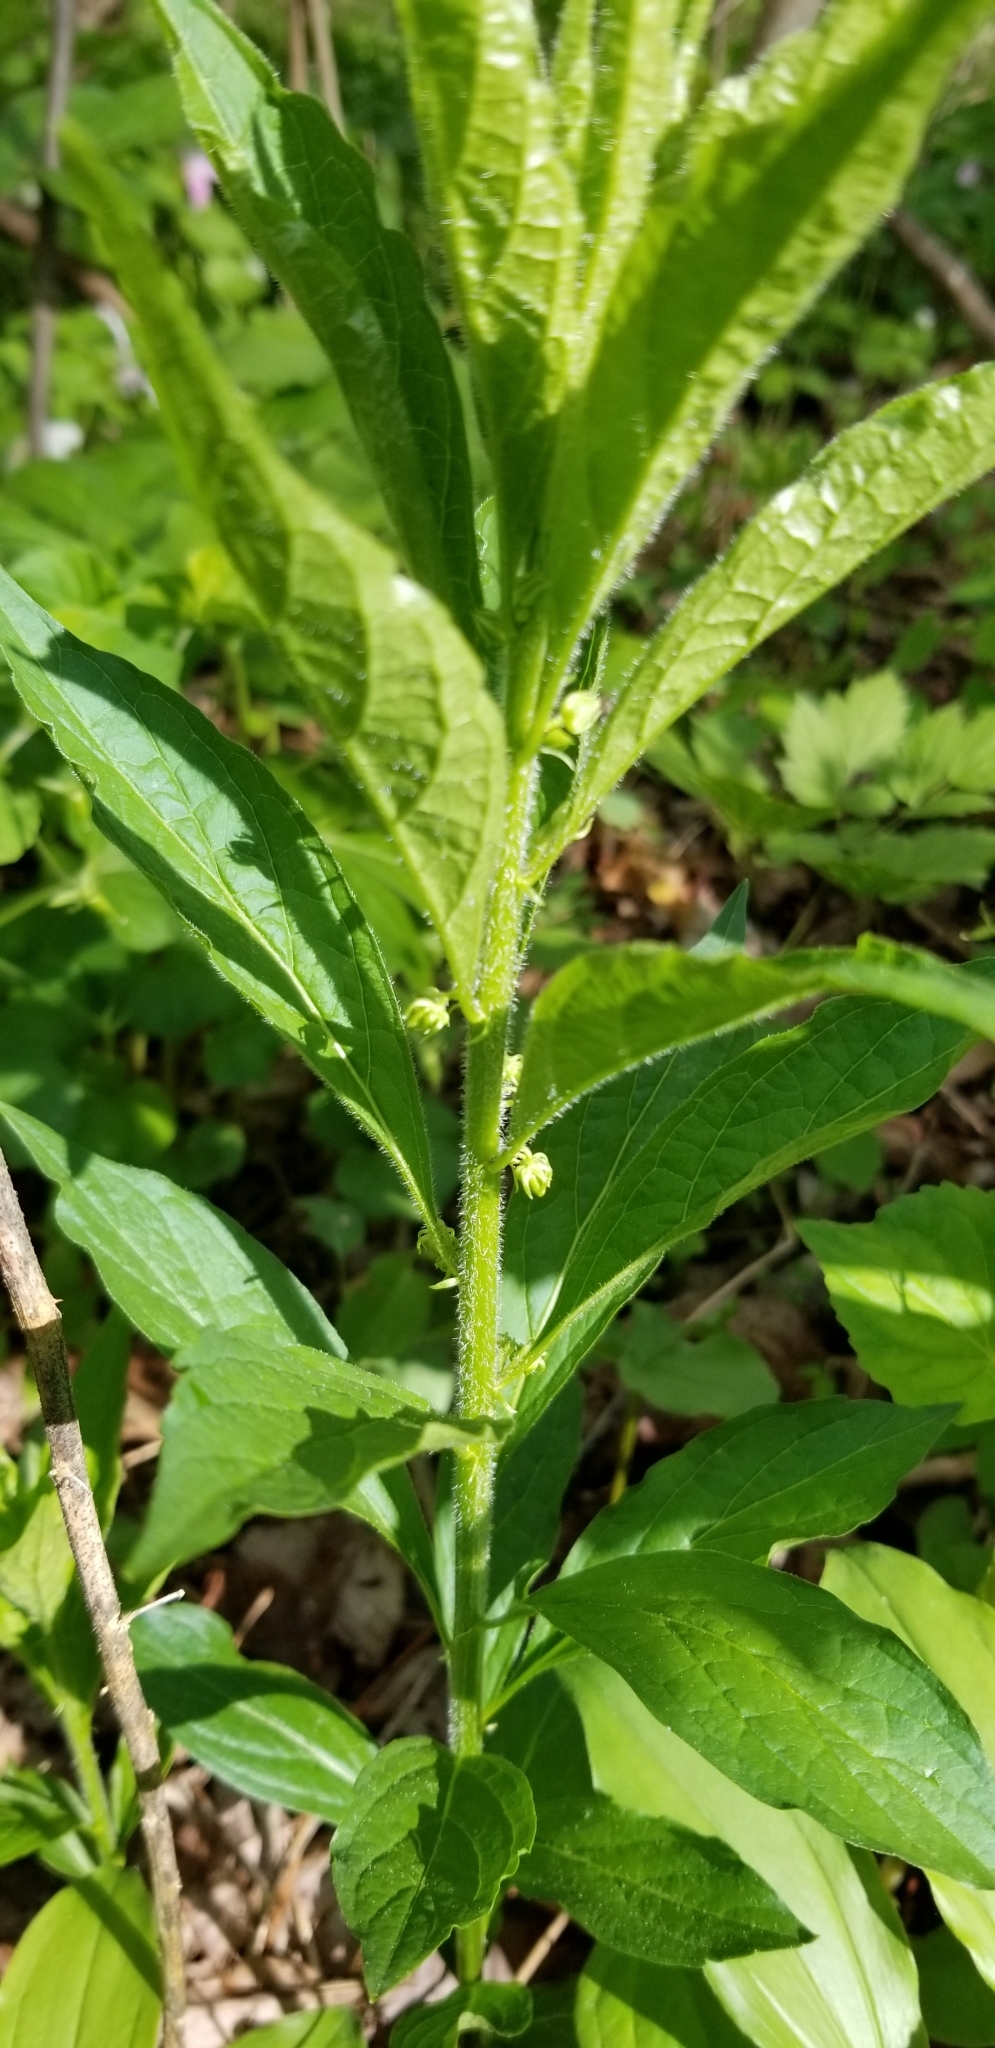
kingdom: Plantae
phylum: Tracheophyta
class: Magnoliopsida
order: Malpighiales
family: Violaceae
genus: Cubelium
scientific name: Cubelium concolor
